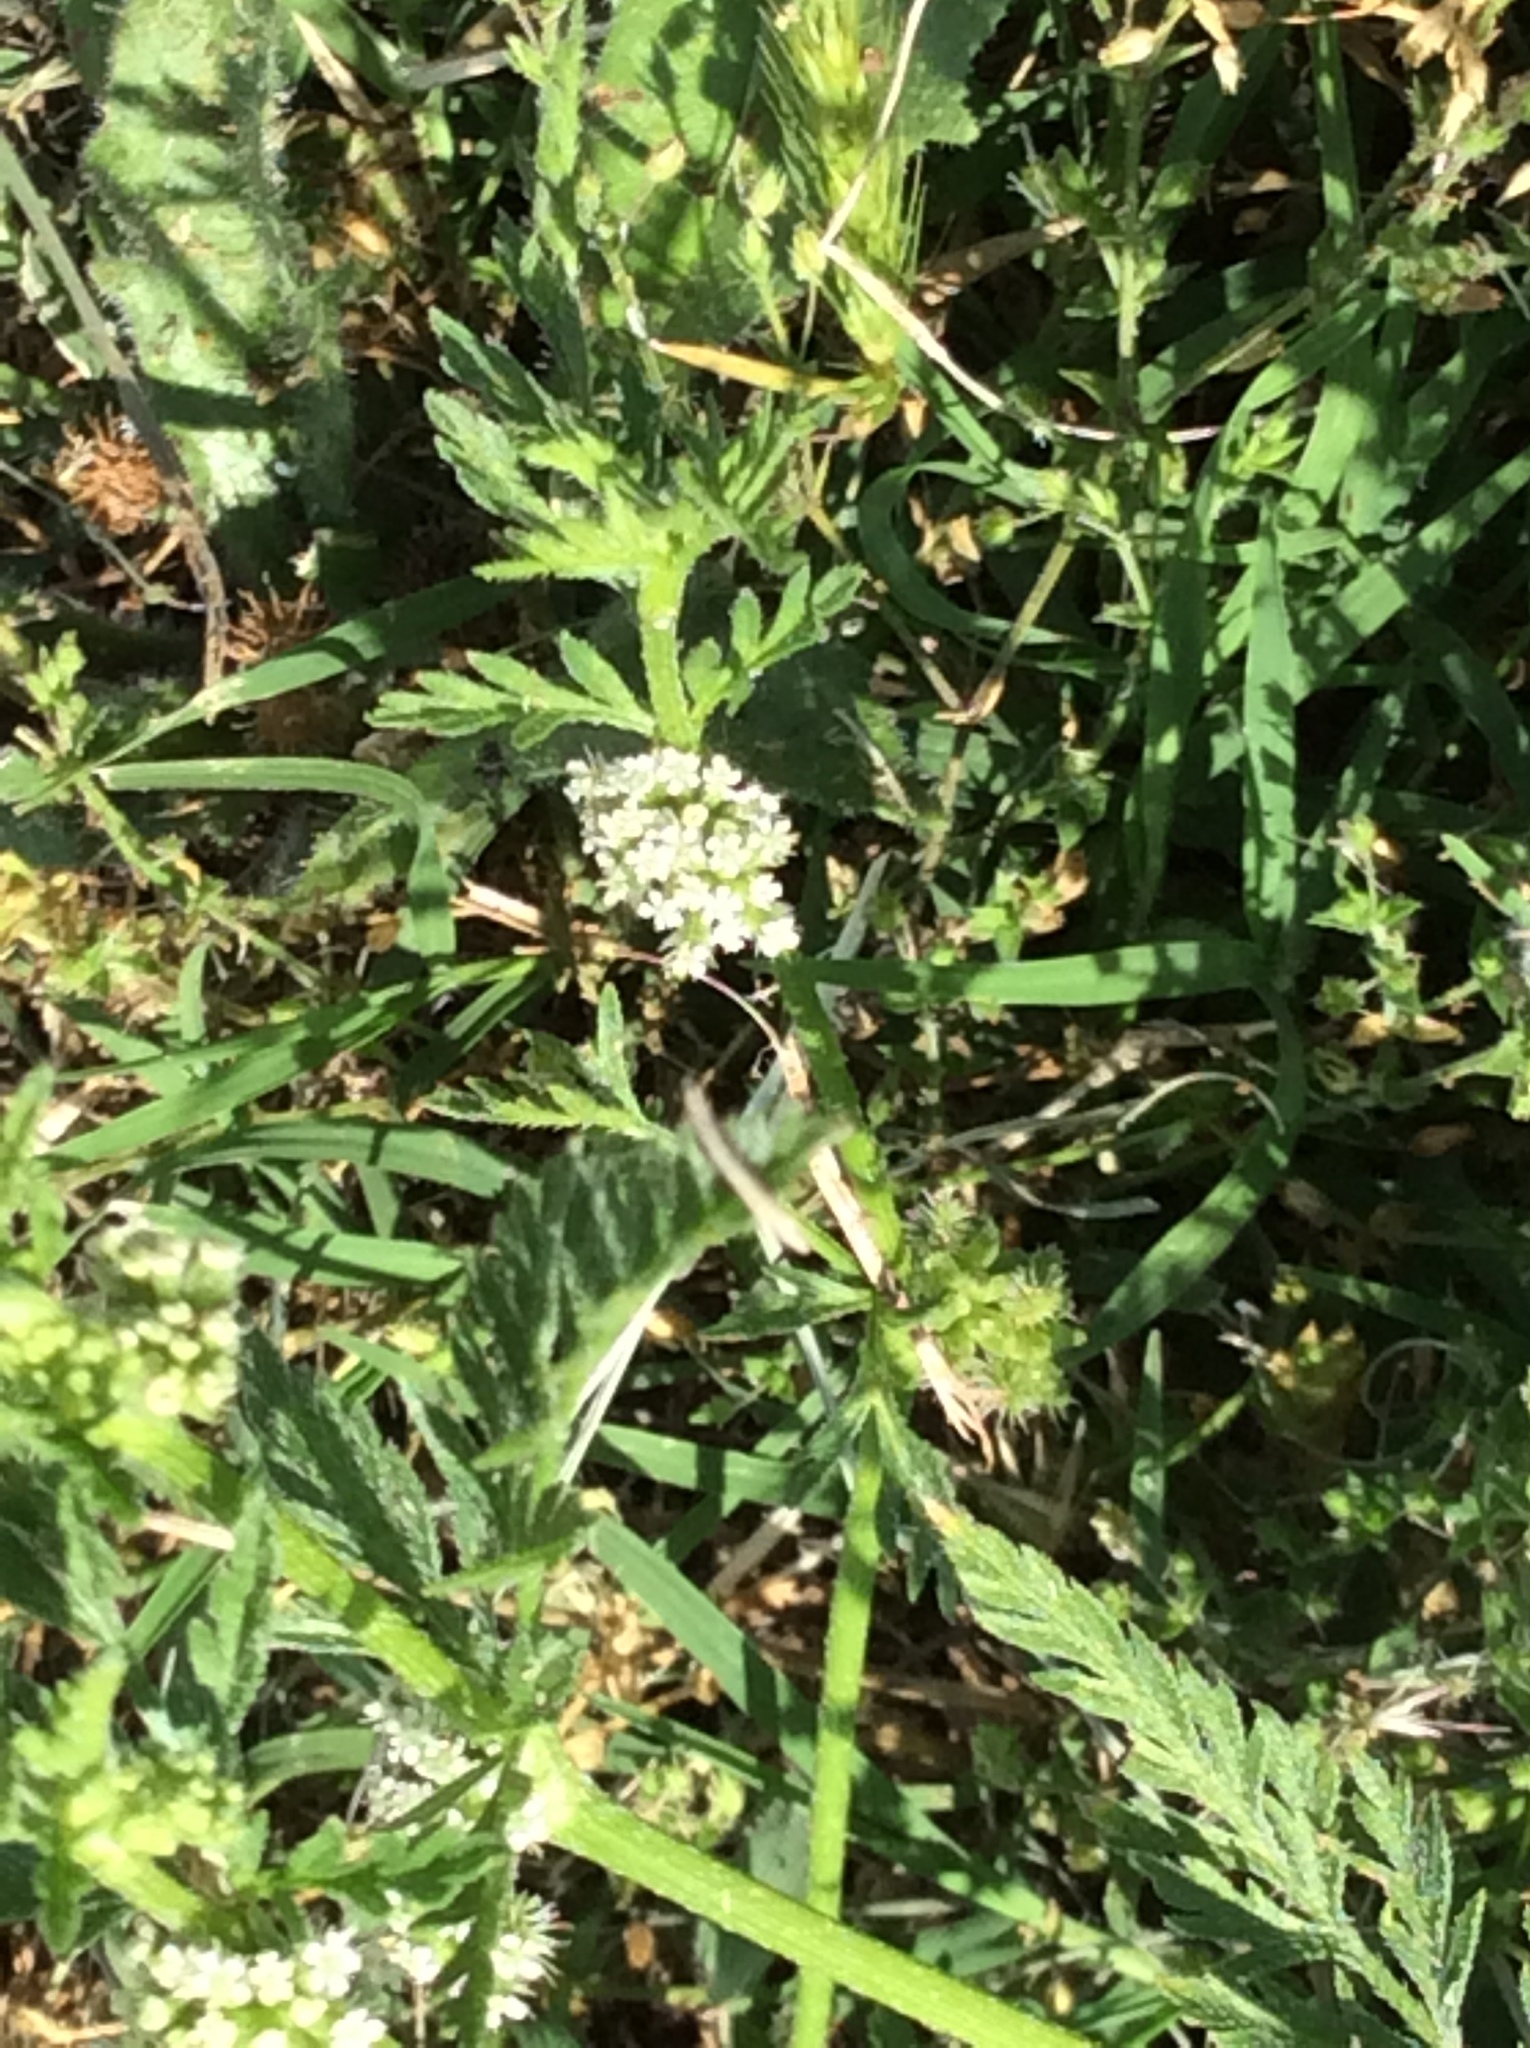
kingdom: Plantae
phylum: Tracheophyta
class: Magnoliopsida
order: Apiales
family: Apiaceae
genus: Torilis
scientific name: Torilis nodosa
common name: Knotted hedge-parsley
